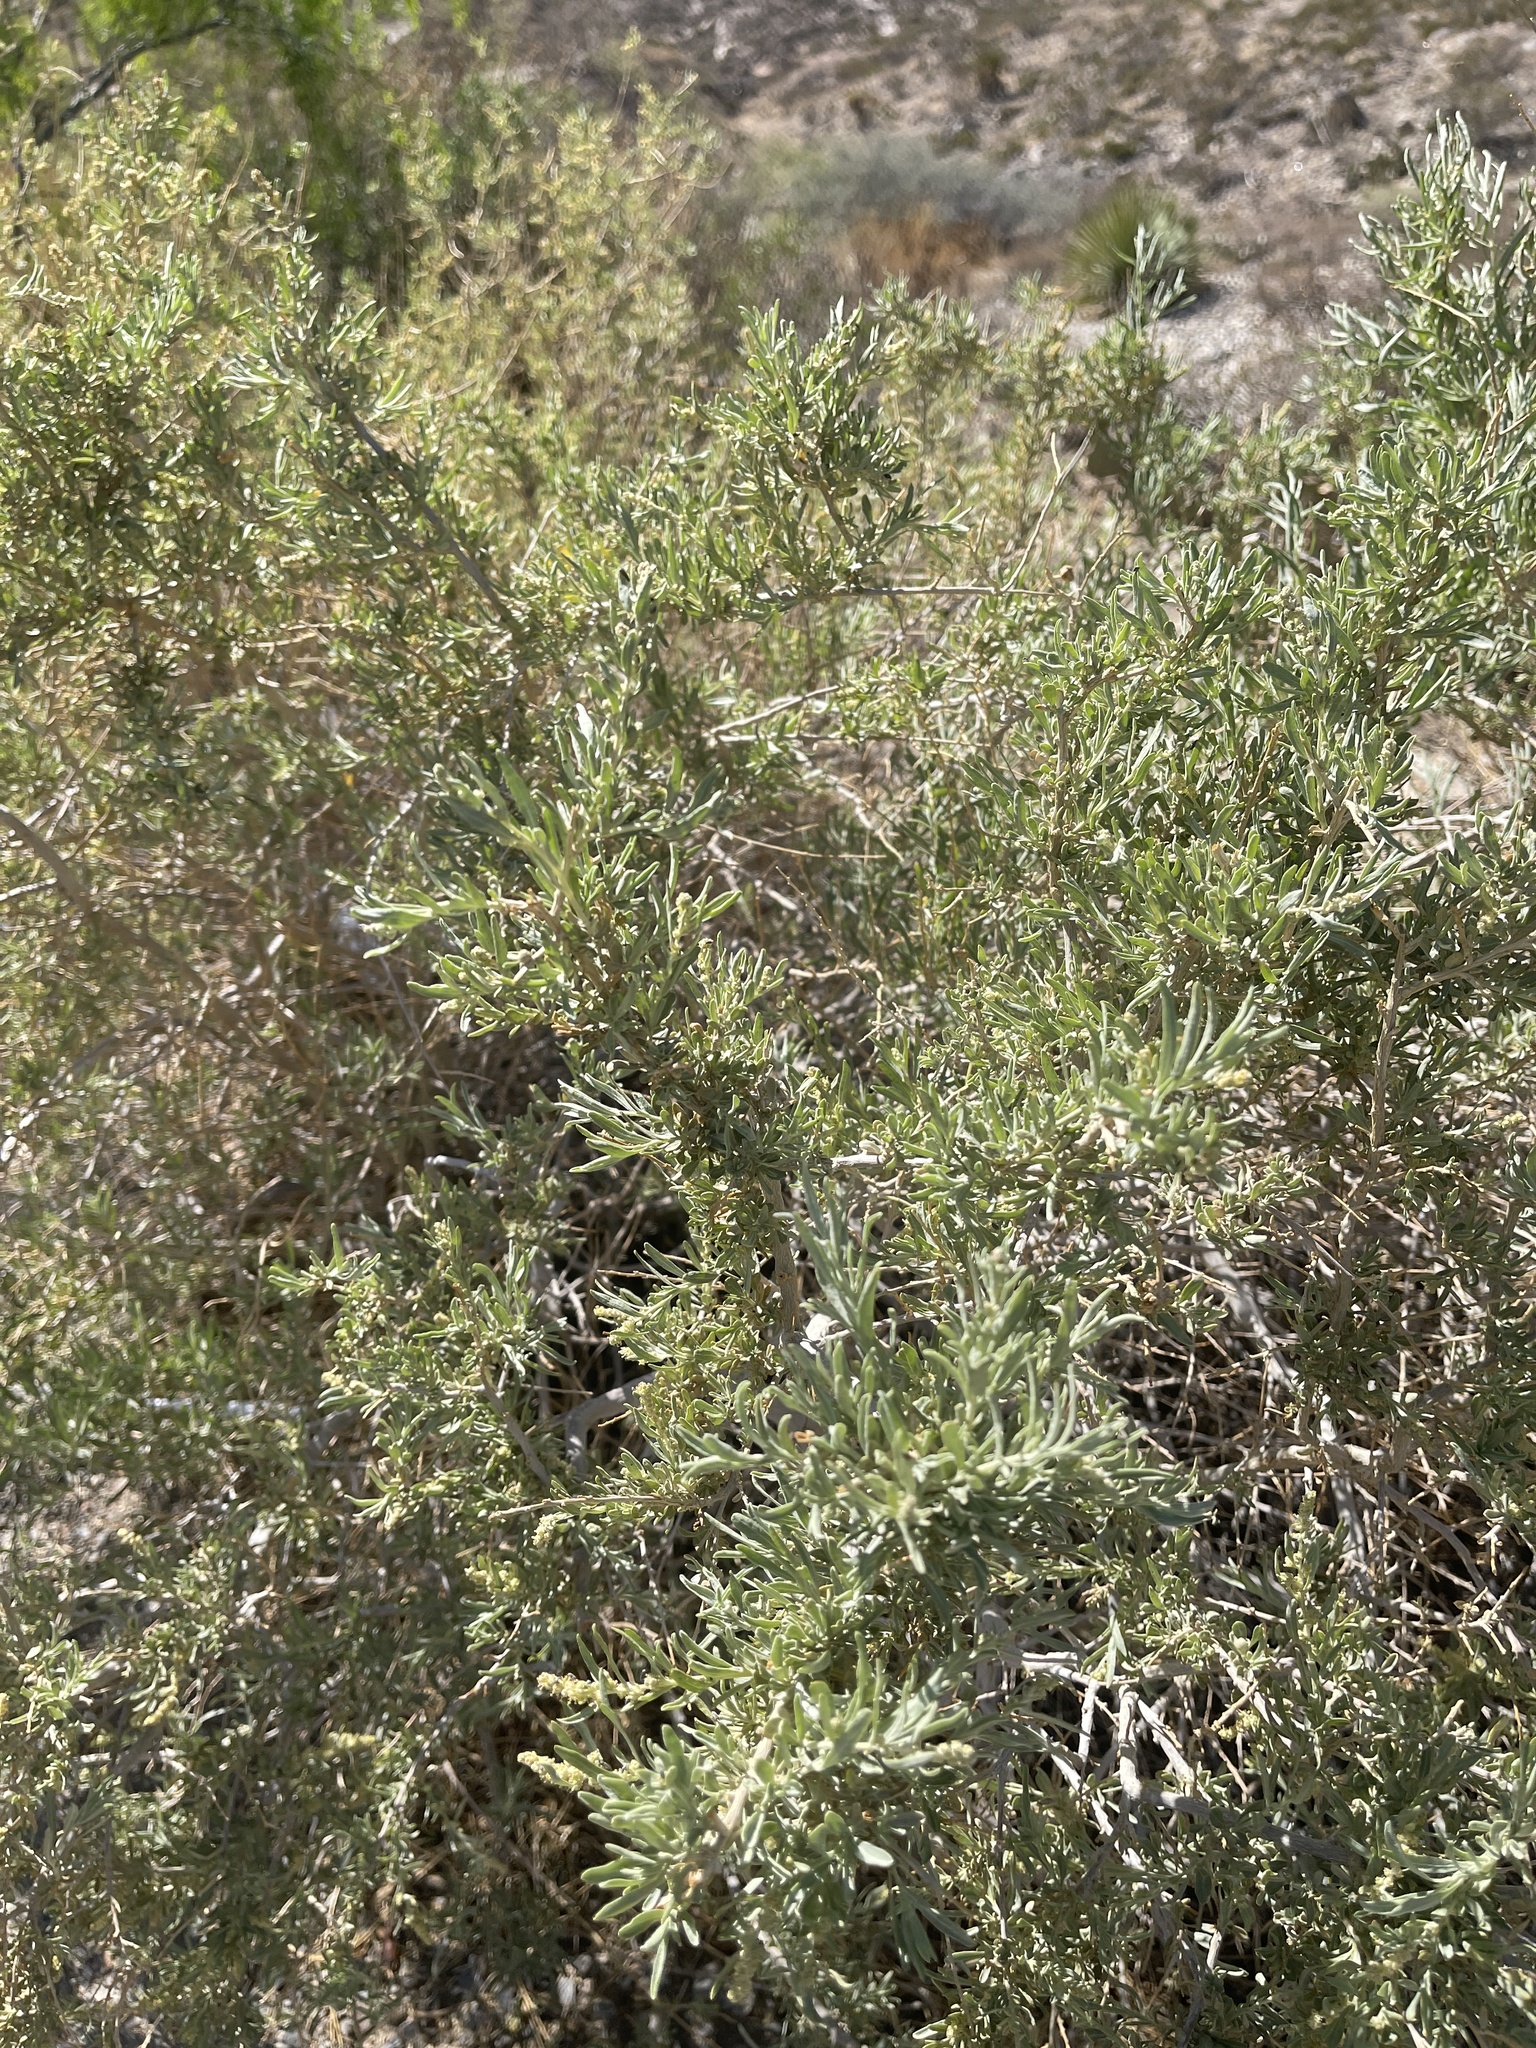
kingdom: Plantae
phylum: Tracheophyta
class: Magnoliopsida
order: Caryophyllales
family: Amaranthaceae
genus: Atriplex
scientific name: Atriplex canescens
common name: Four-wing saltbush
